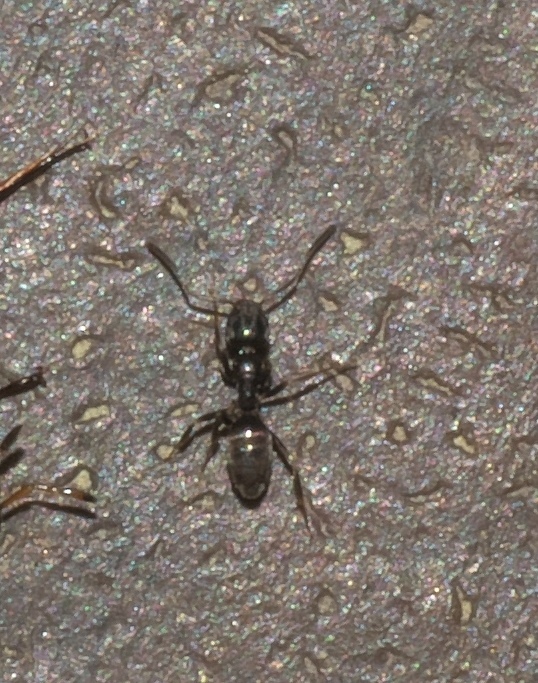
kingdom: Animalia
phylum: Arthropoda
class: Insecta
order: Hymenoptera
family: Formicidae
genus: Tapinoma
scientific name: Tapinoma sessile
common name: Odorous house ant
